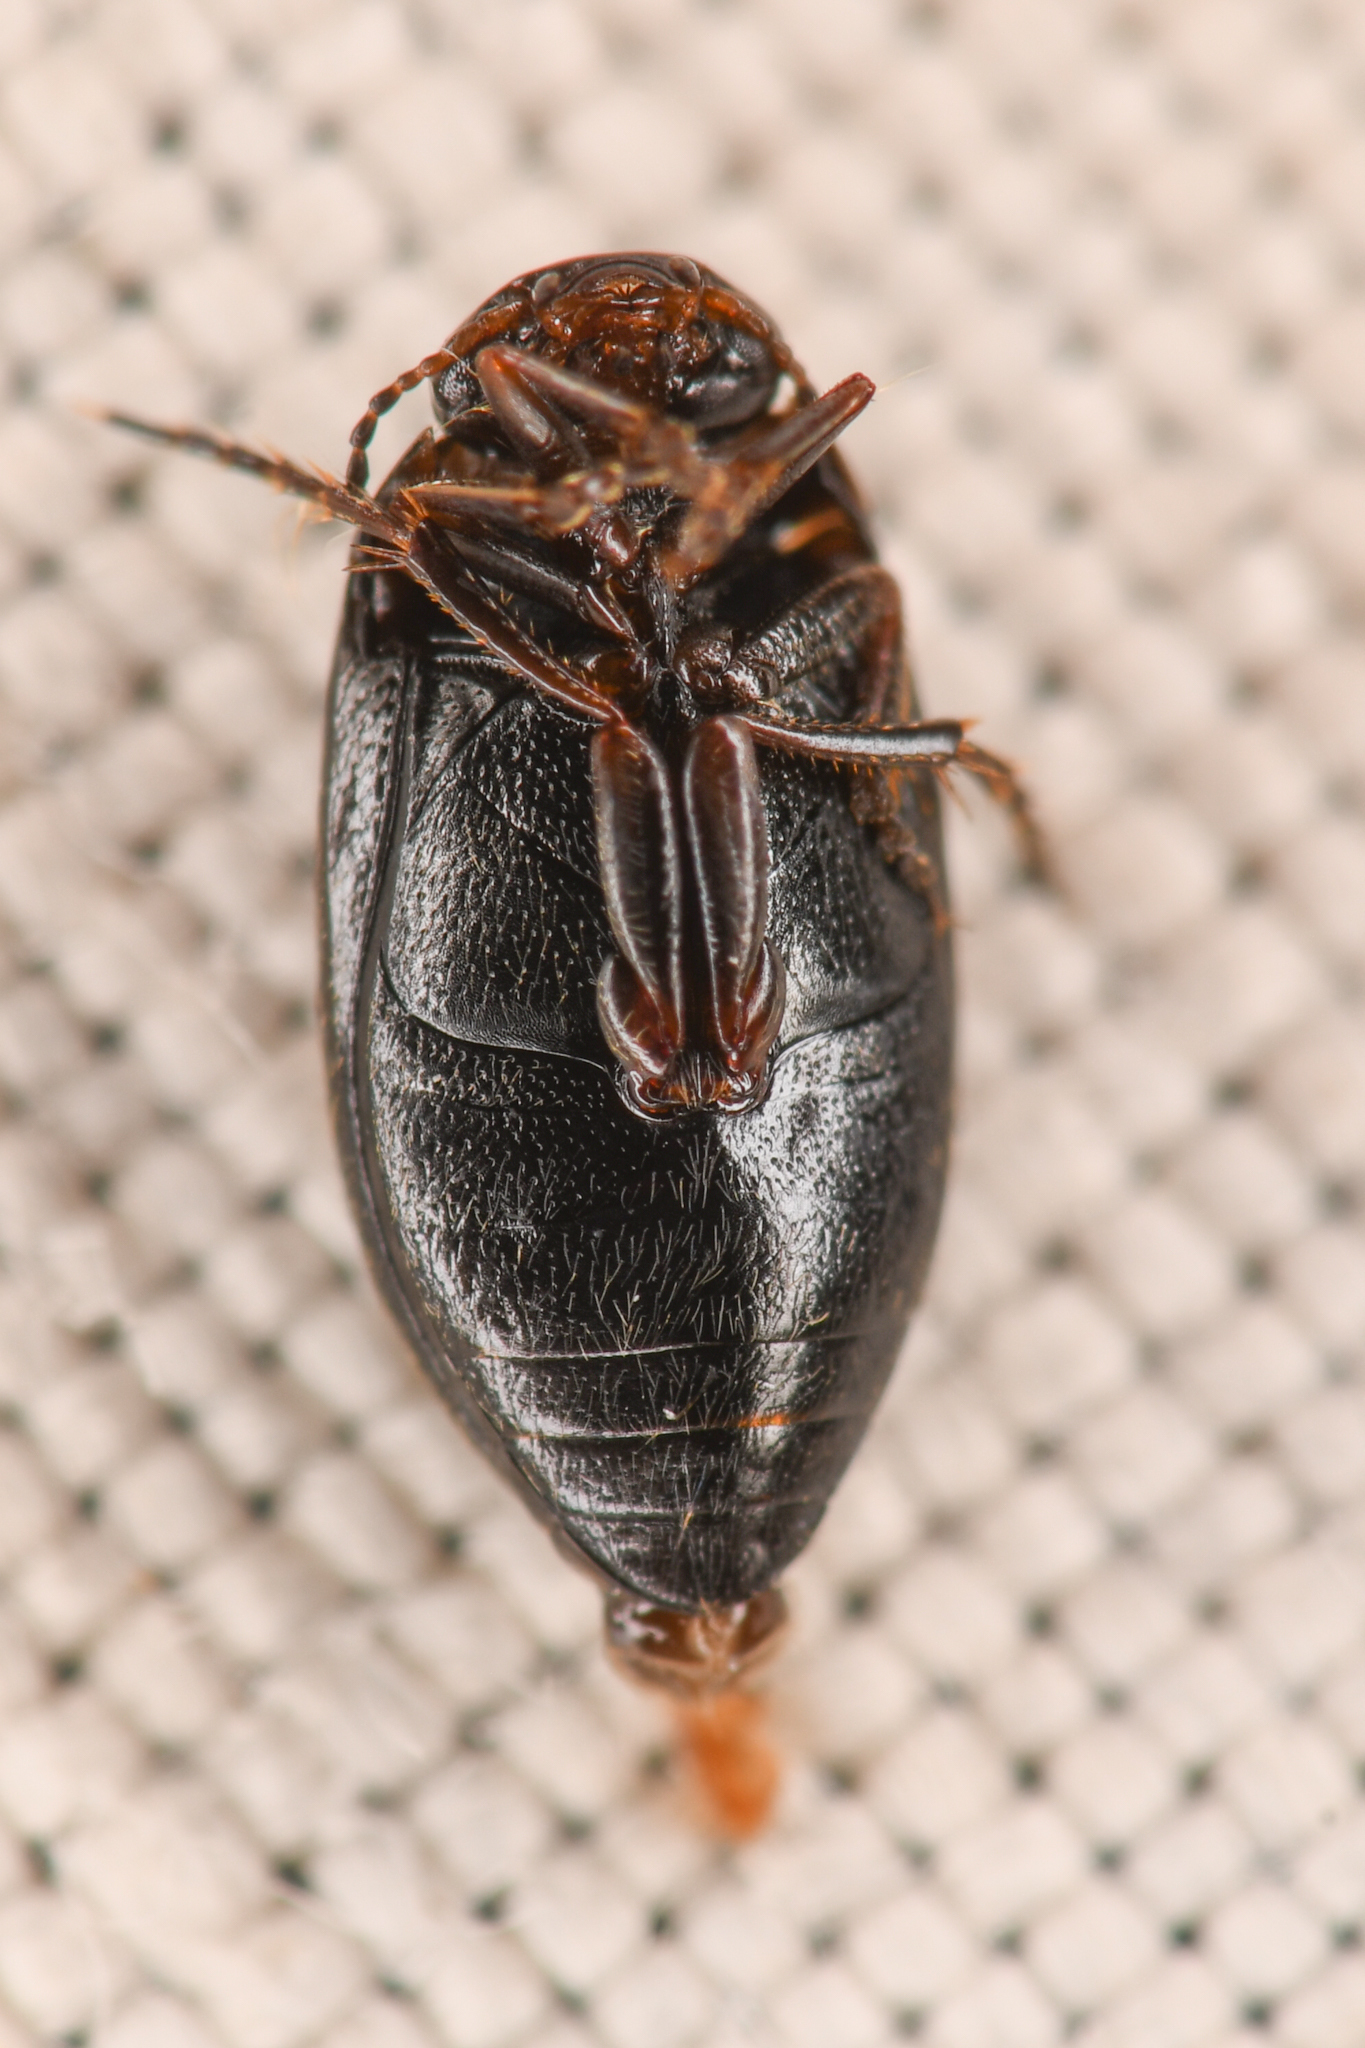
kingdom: Animalia
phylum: Arthropoda
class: Insecta
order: Coleoptera
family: Dytiscidae
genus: Hydroporus
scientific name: Hydroporus
